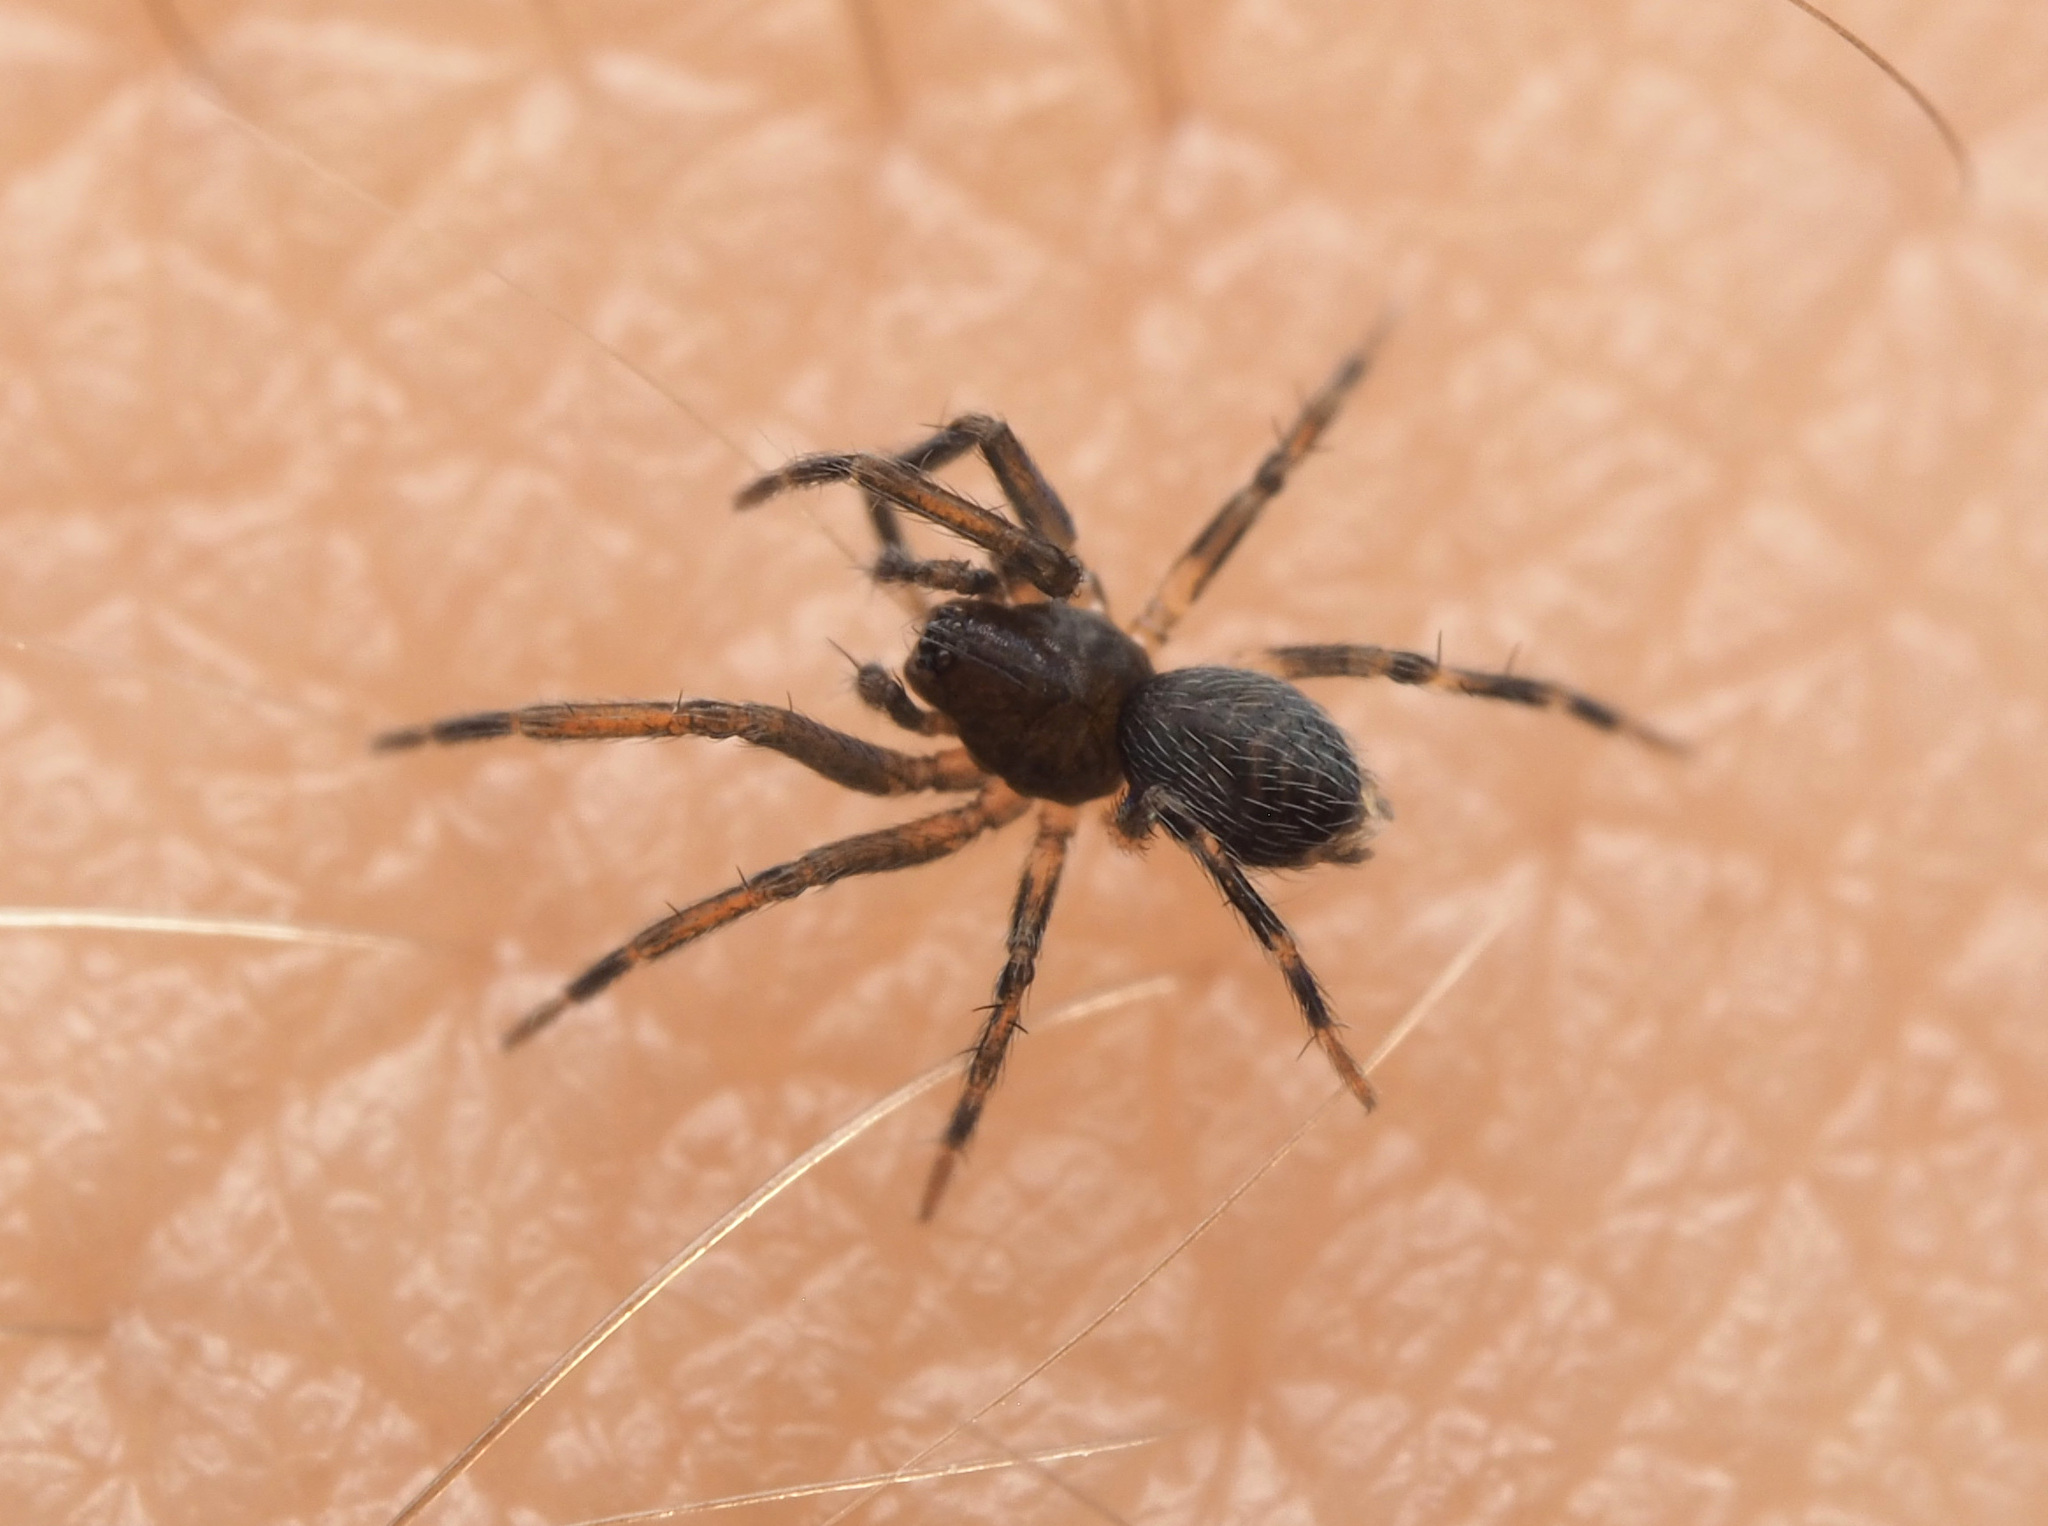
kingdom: Animalia
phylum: Arthropoda
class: Arachnida
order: Araneae
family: Hahniidae
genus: Alistra
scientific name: Alistra
